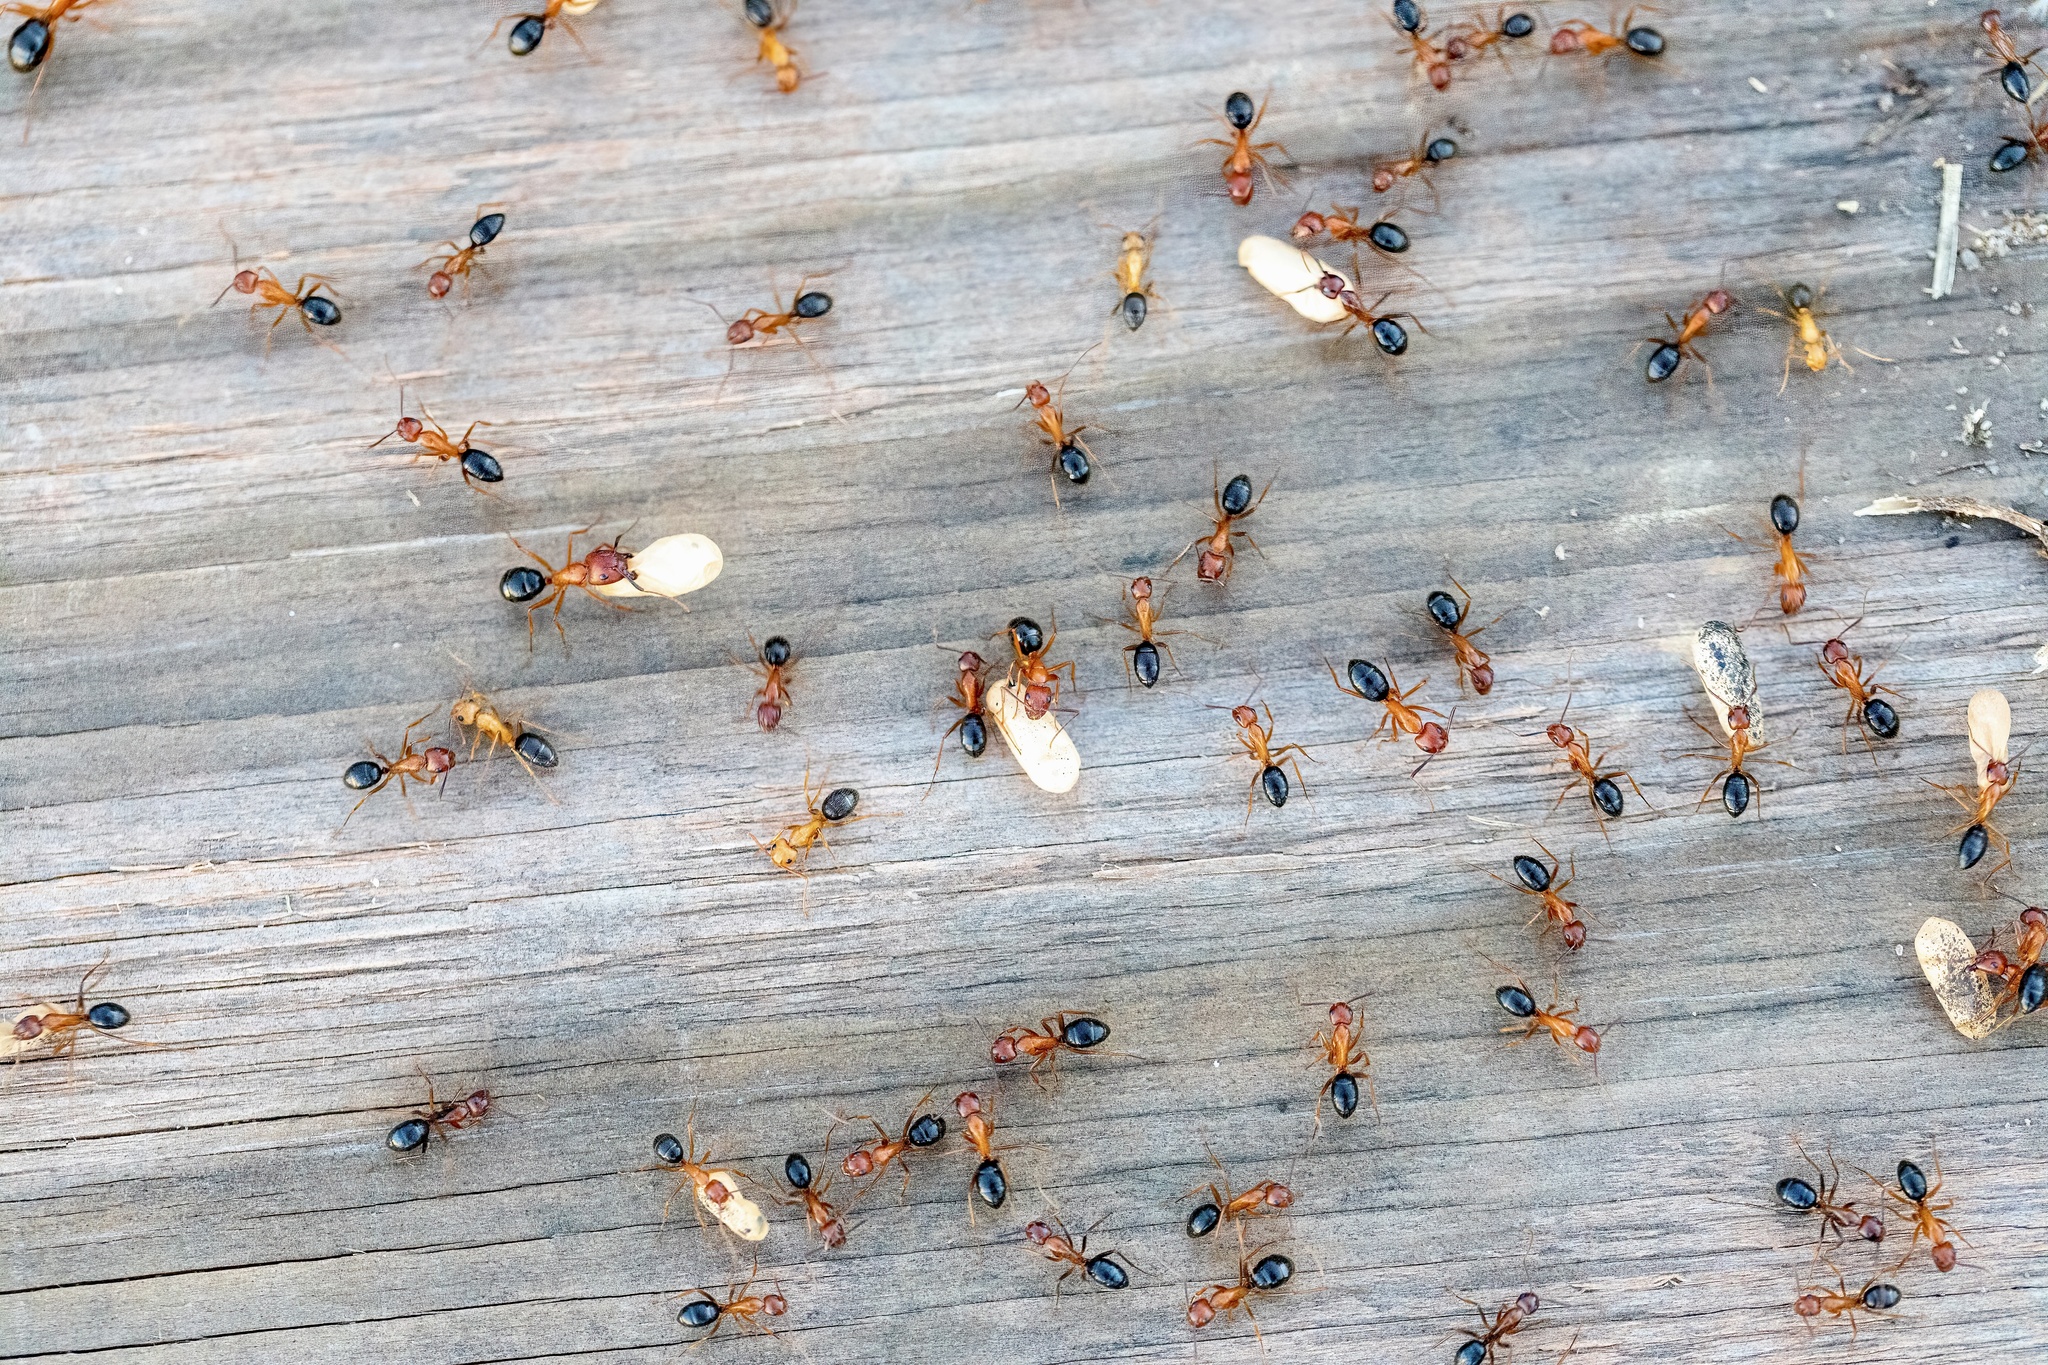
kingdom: Animalia
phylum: Arthropoda
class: Insecta
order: Hymenoptera
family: Formicidae
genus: Camponotus
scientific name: Camponotus floridanus
